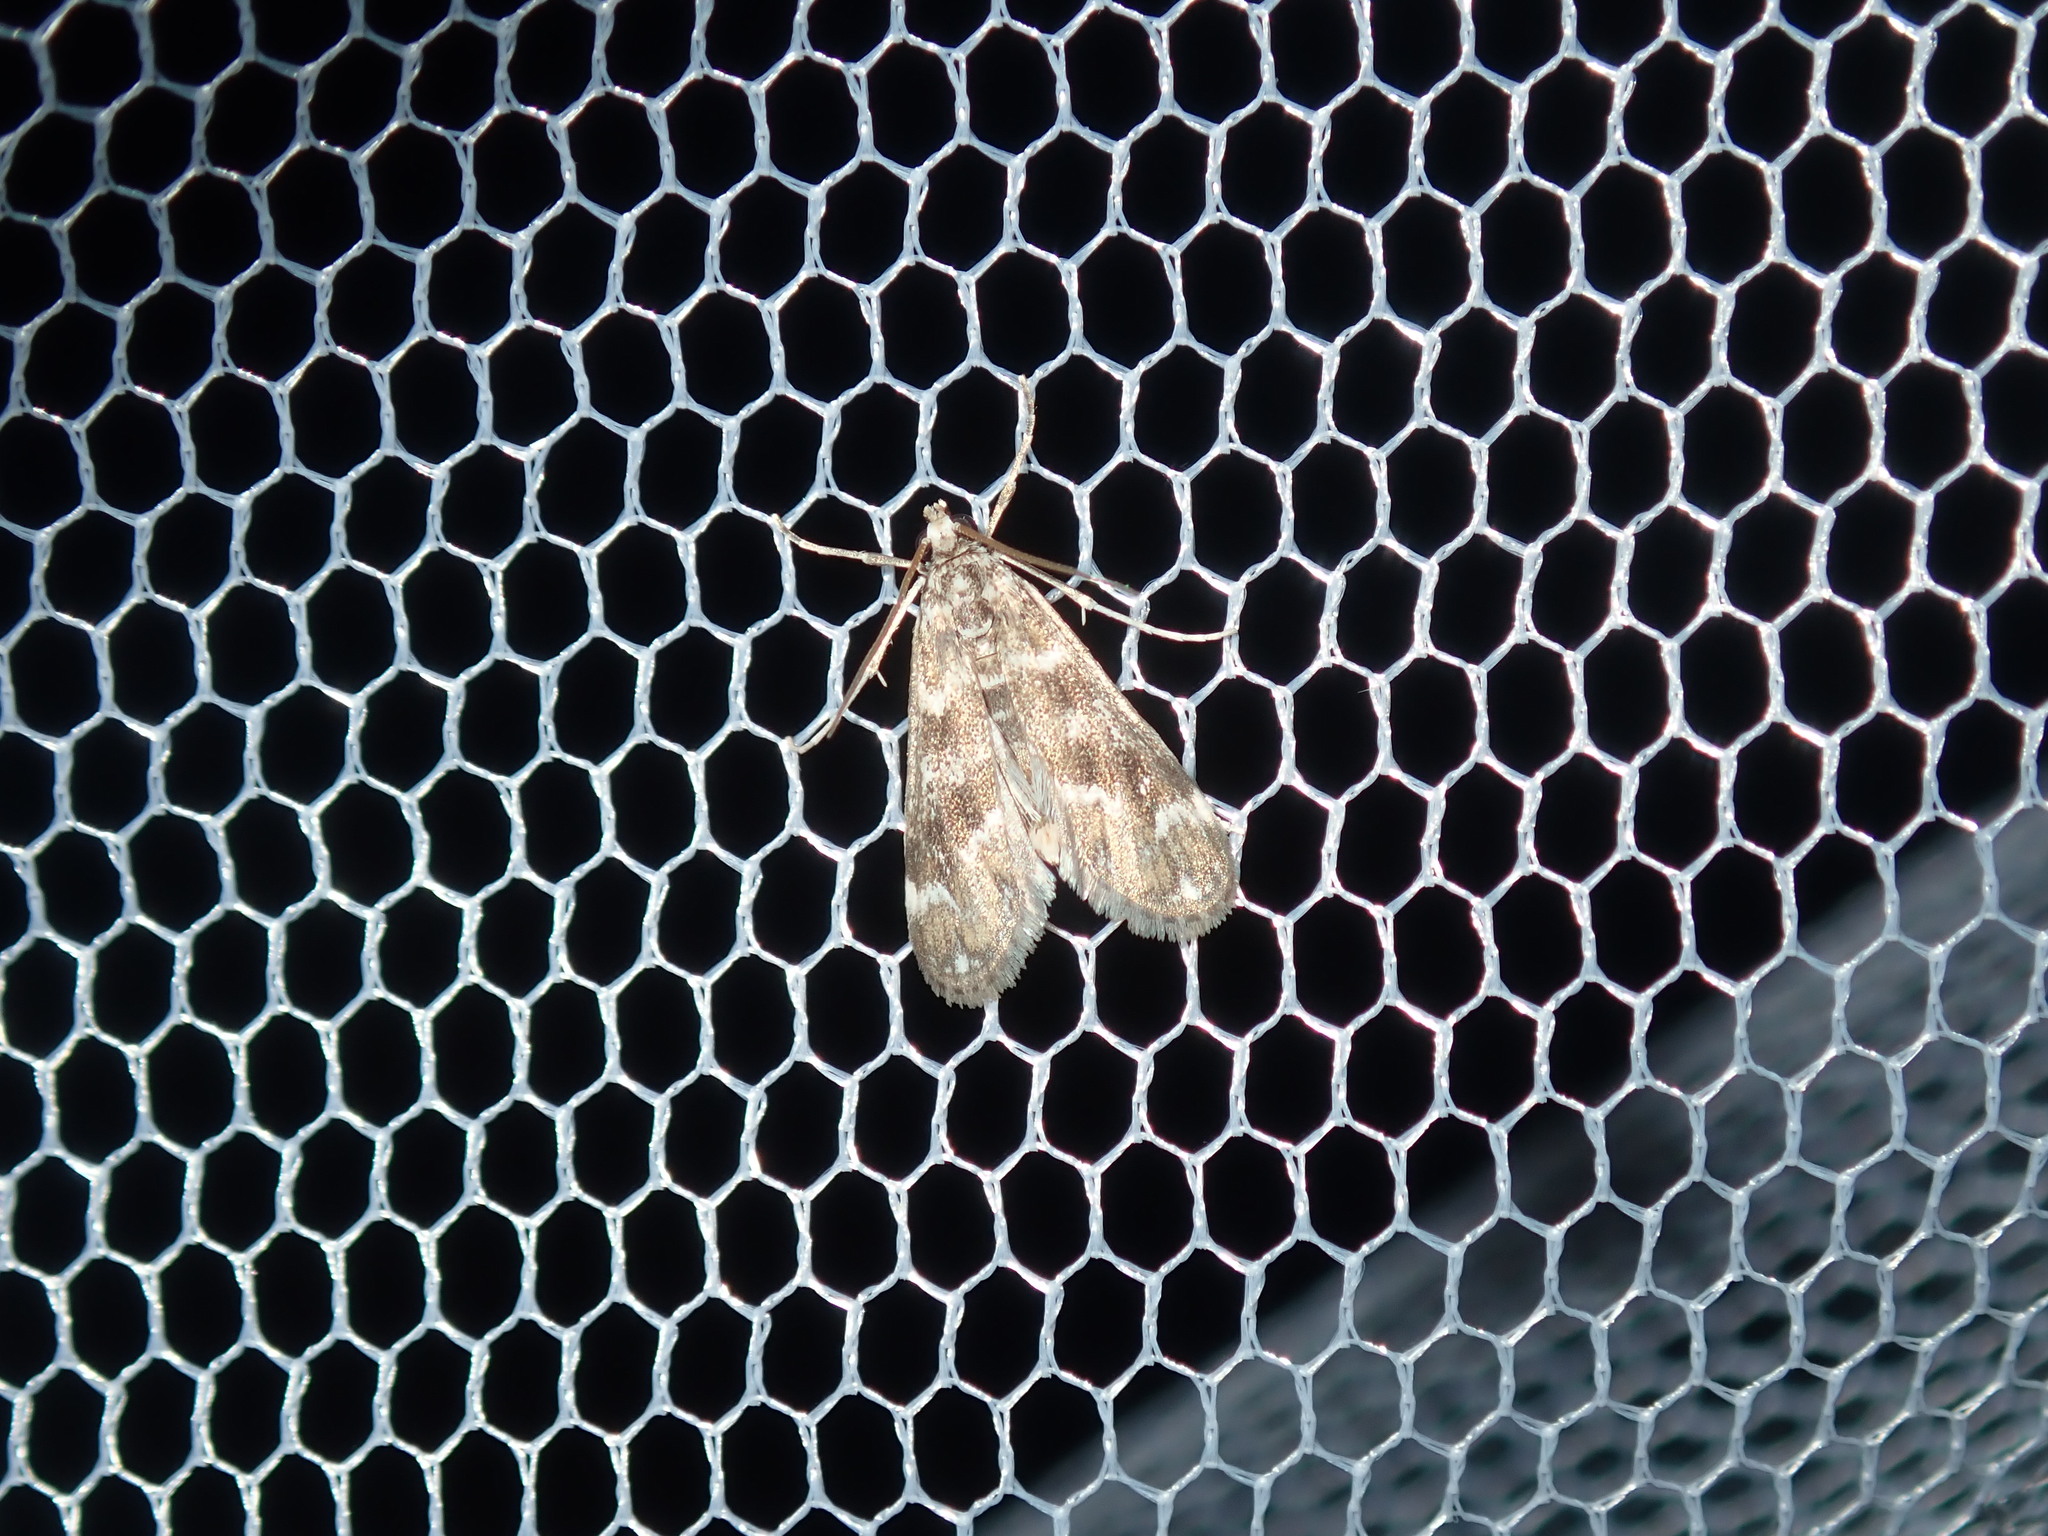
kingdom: Animalia
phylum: Arthropoda
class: Insecta
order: Lepidoptera
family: Crambidae
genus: Hygraula
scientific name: Hygraula nitens
